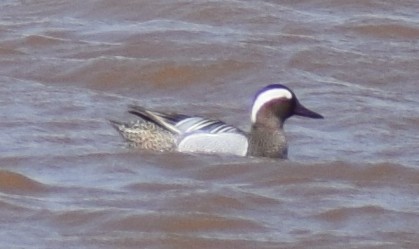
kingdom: Animalia
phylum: Chordata
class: Aves
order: Anseriformes
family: Anatidae
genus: Spatula
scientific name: Spatula querquedula
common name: Garganey
